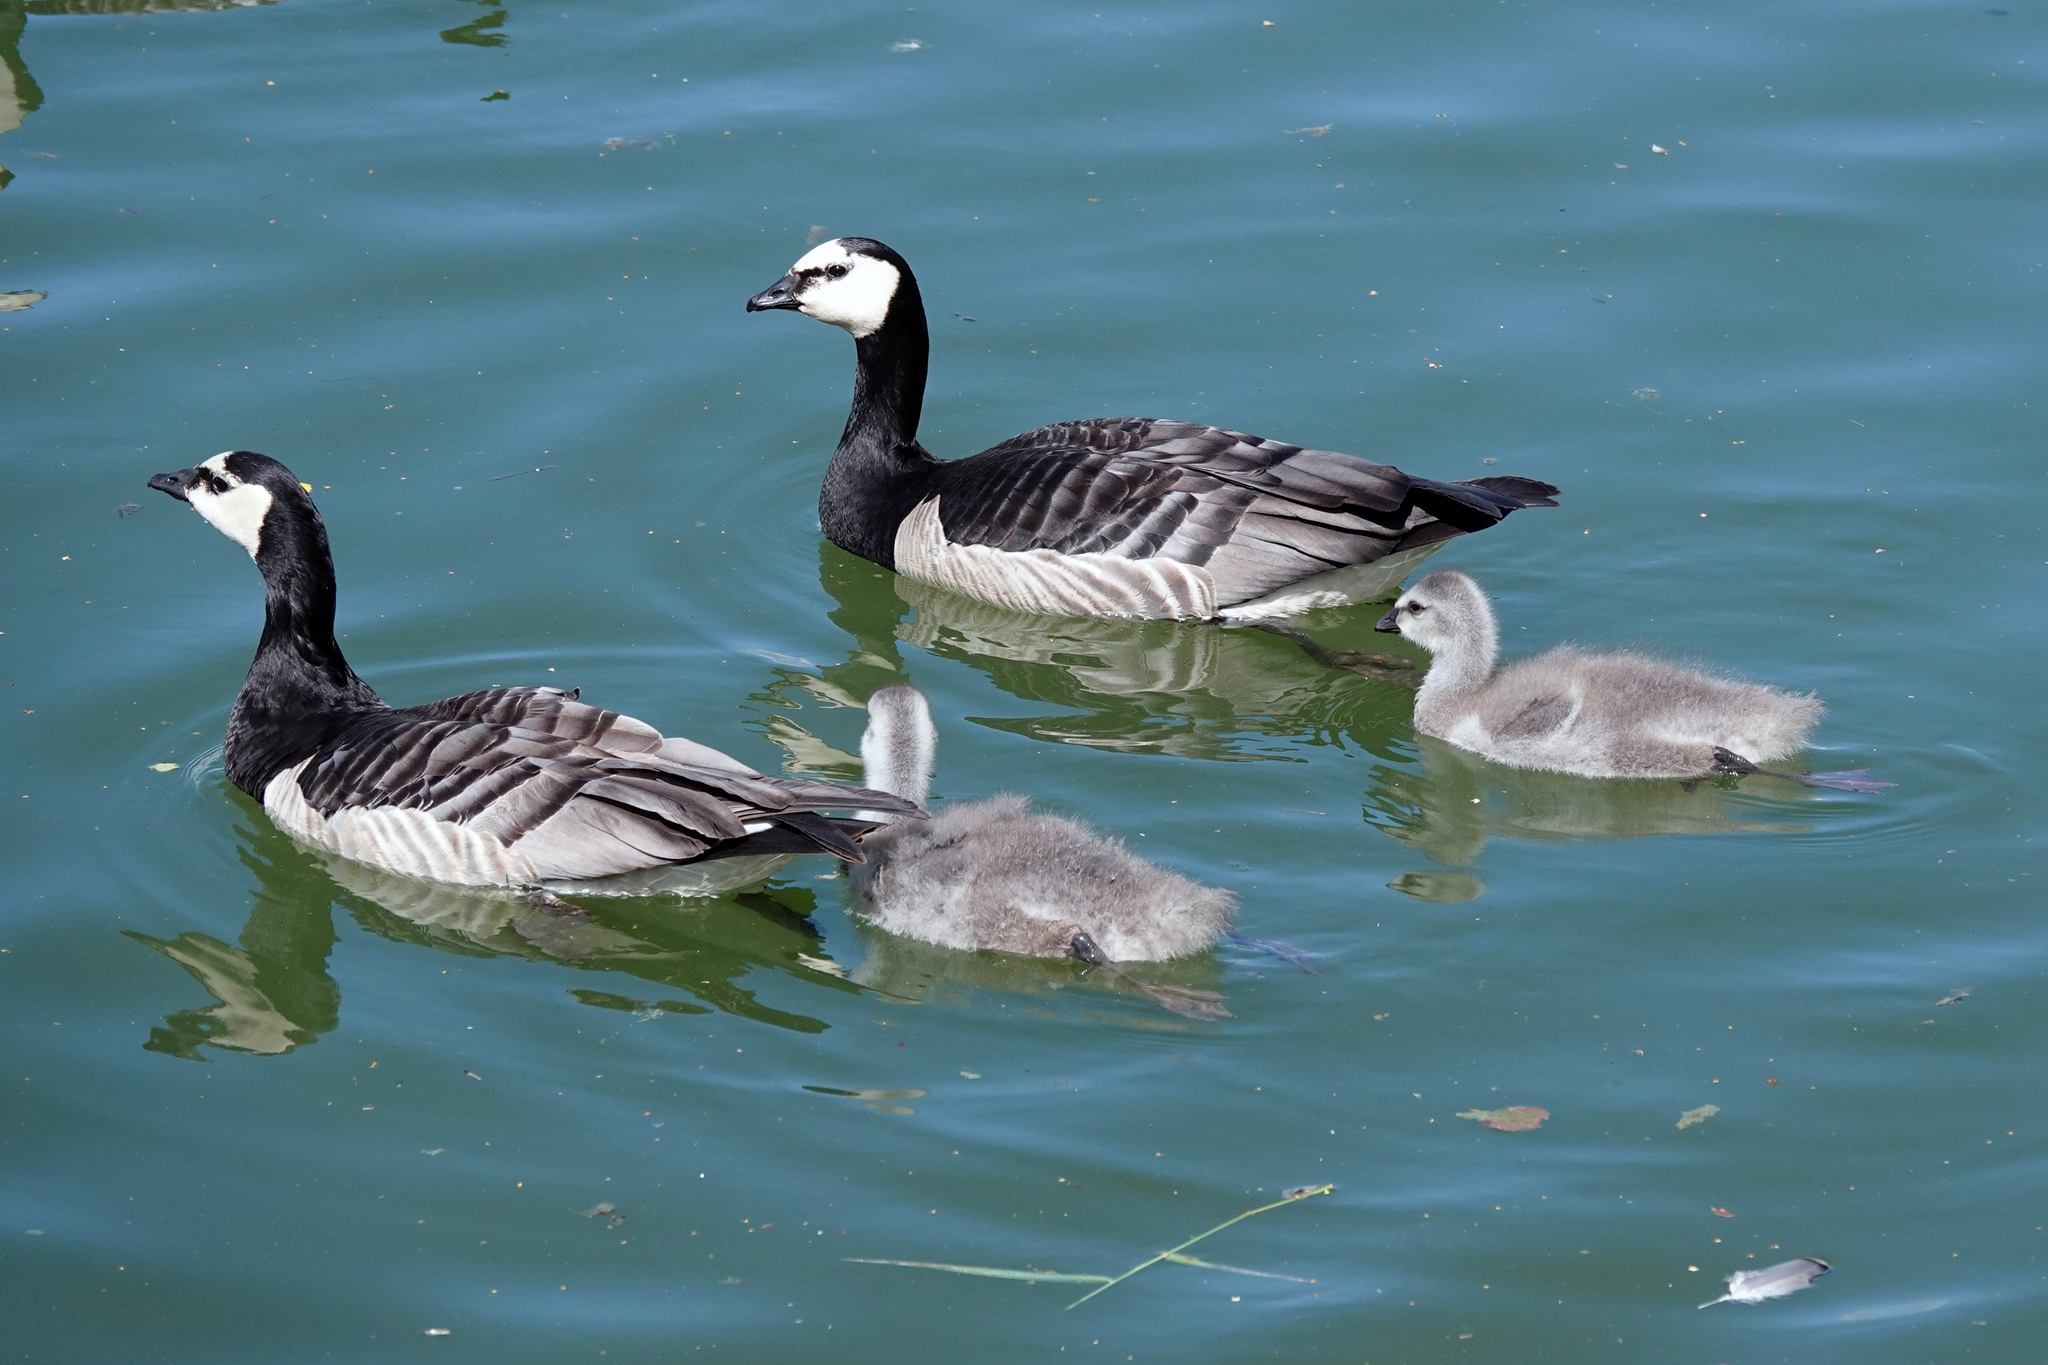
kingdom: Animalia
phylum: Chordata
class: Aves
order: Anseriformes
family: Anatidae
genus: Branta
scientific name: Branta leucopsis
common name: Barnacle goose
